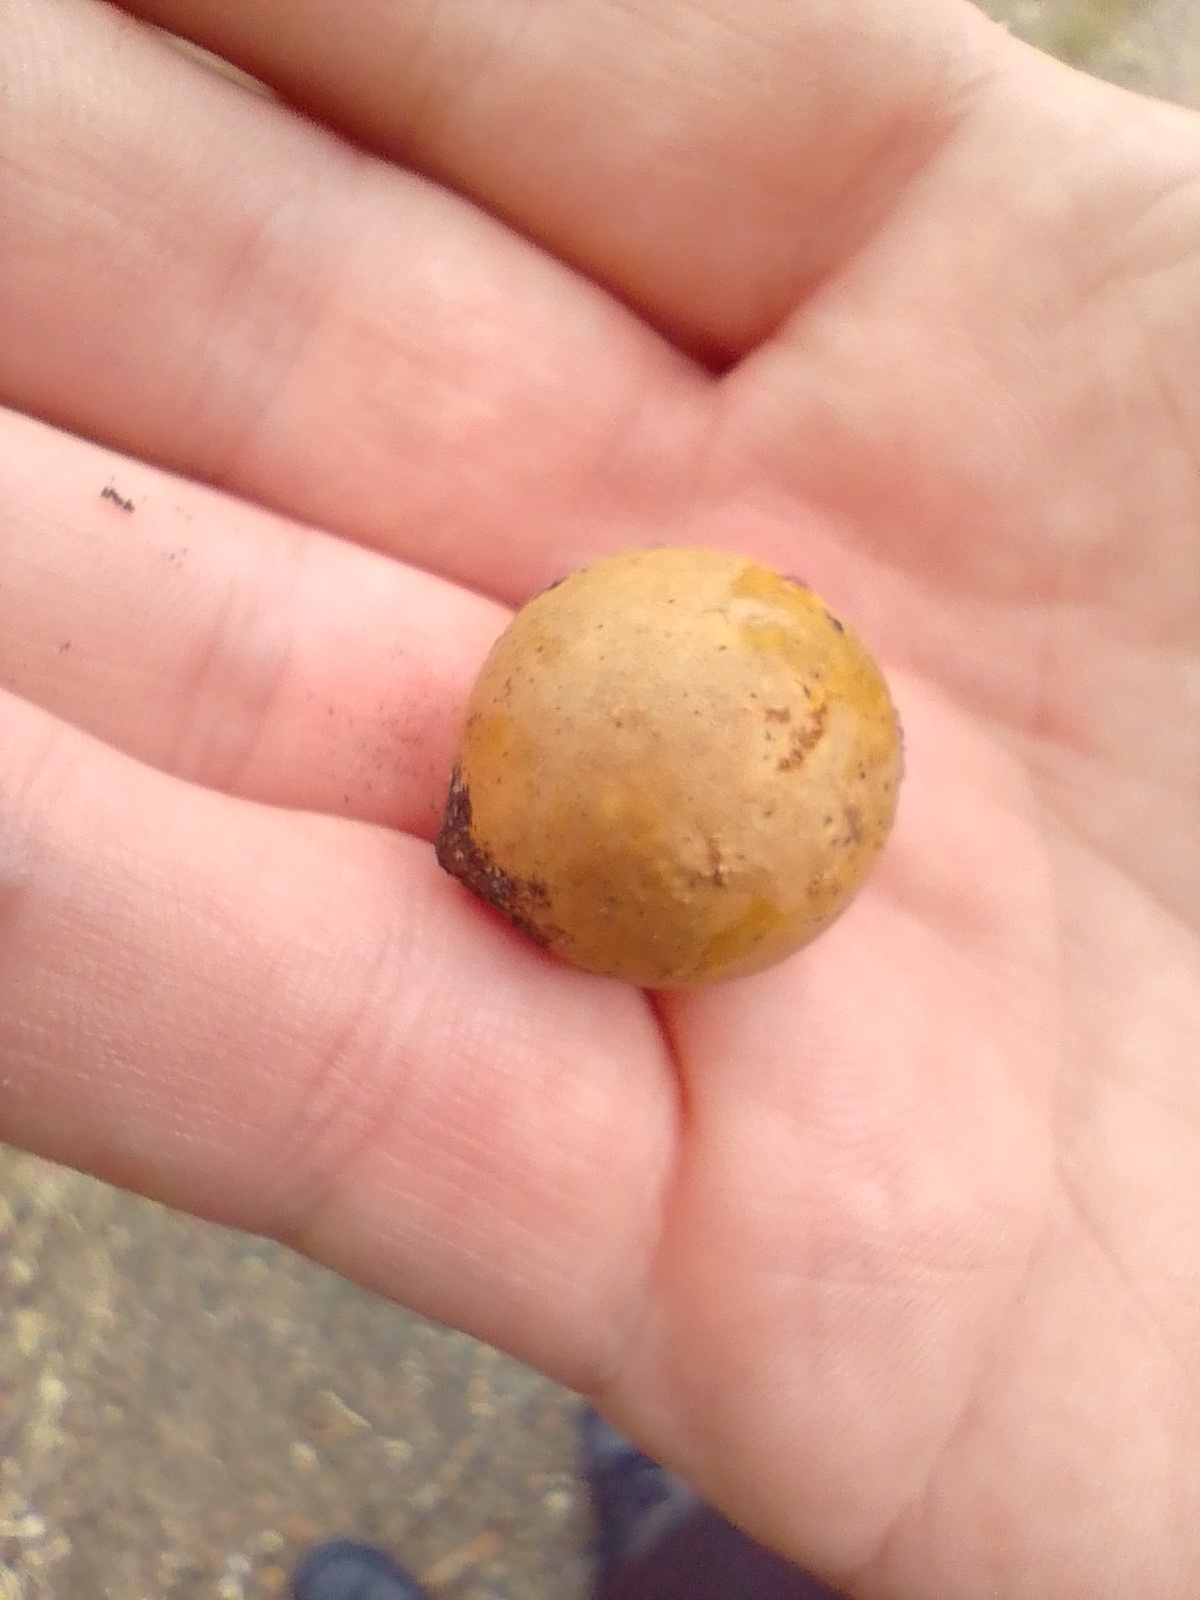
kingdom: Animalia
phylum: Arthropoda
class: Insecta
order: Hymenoptera
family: Cynipidae
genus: Andricus
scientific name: Andricus kollari
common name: Marble gall
